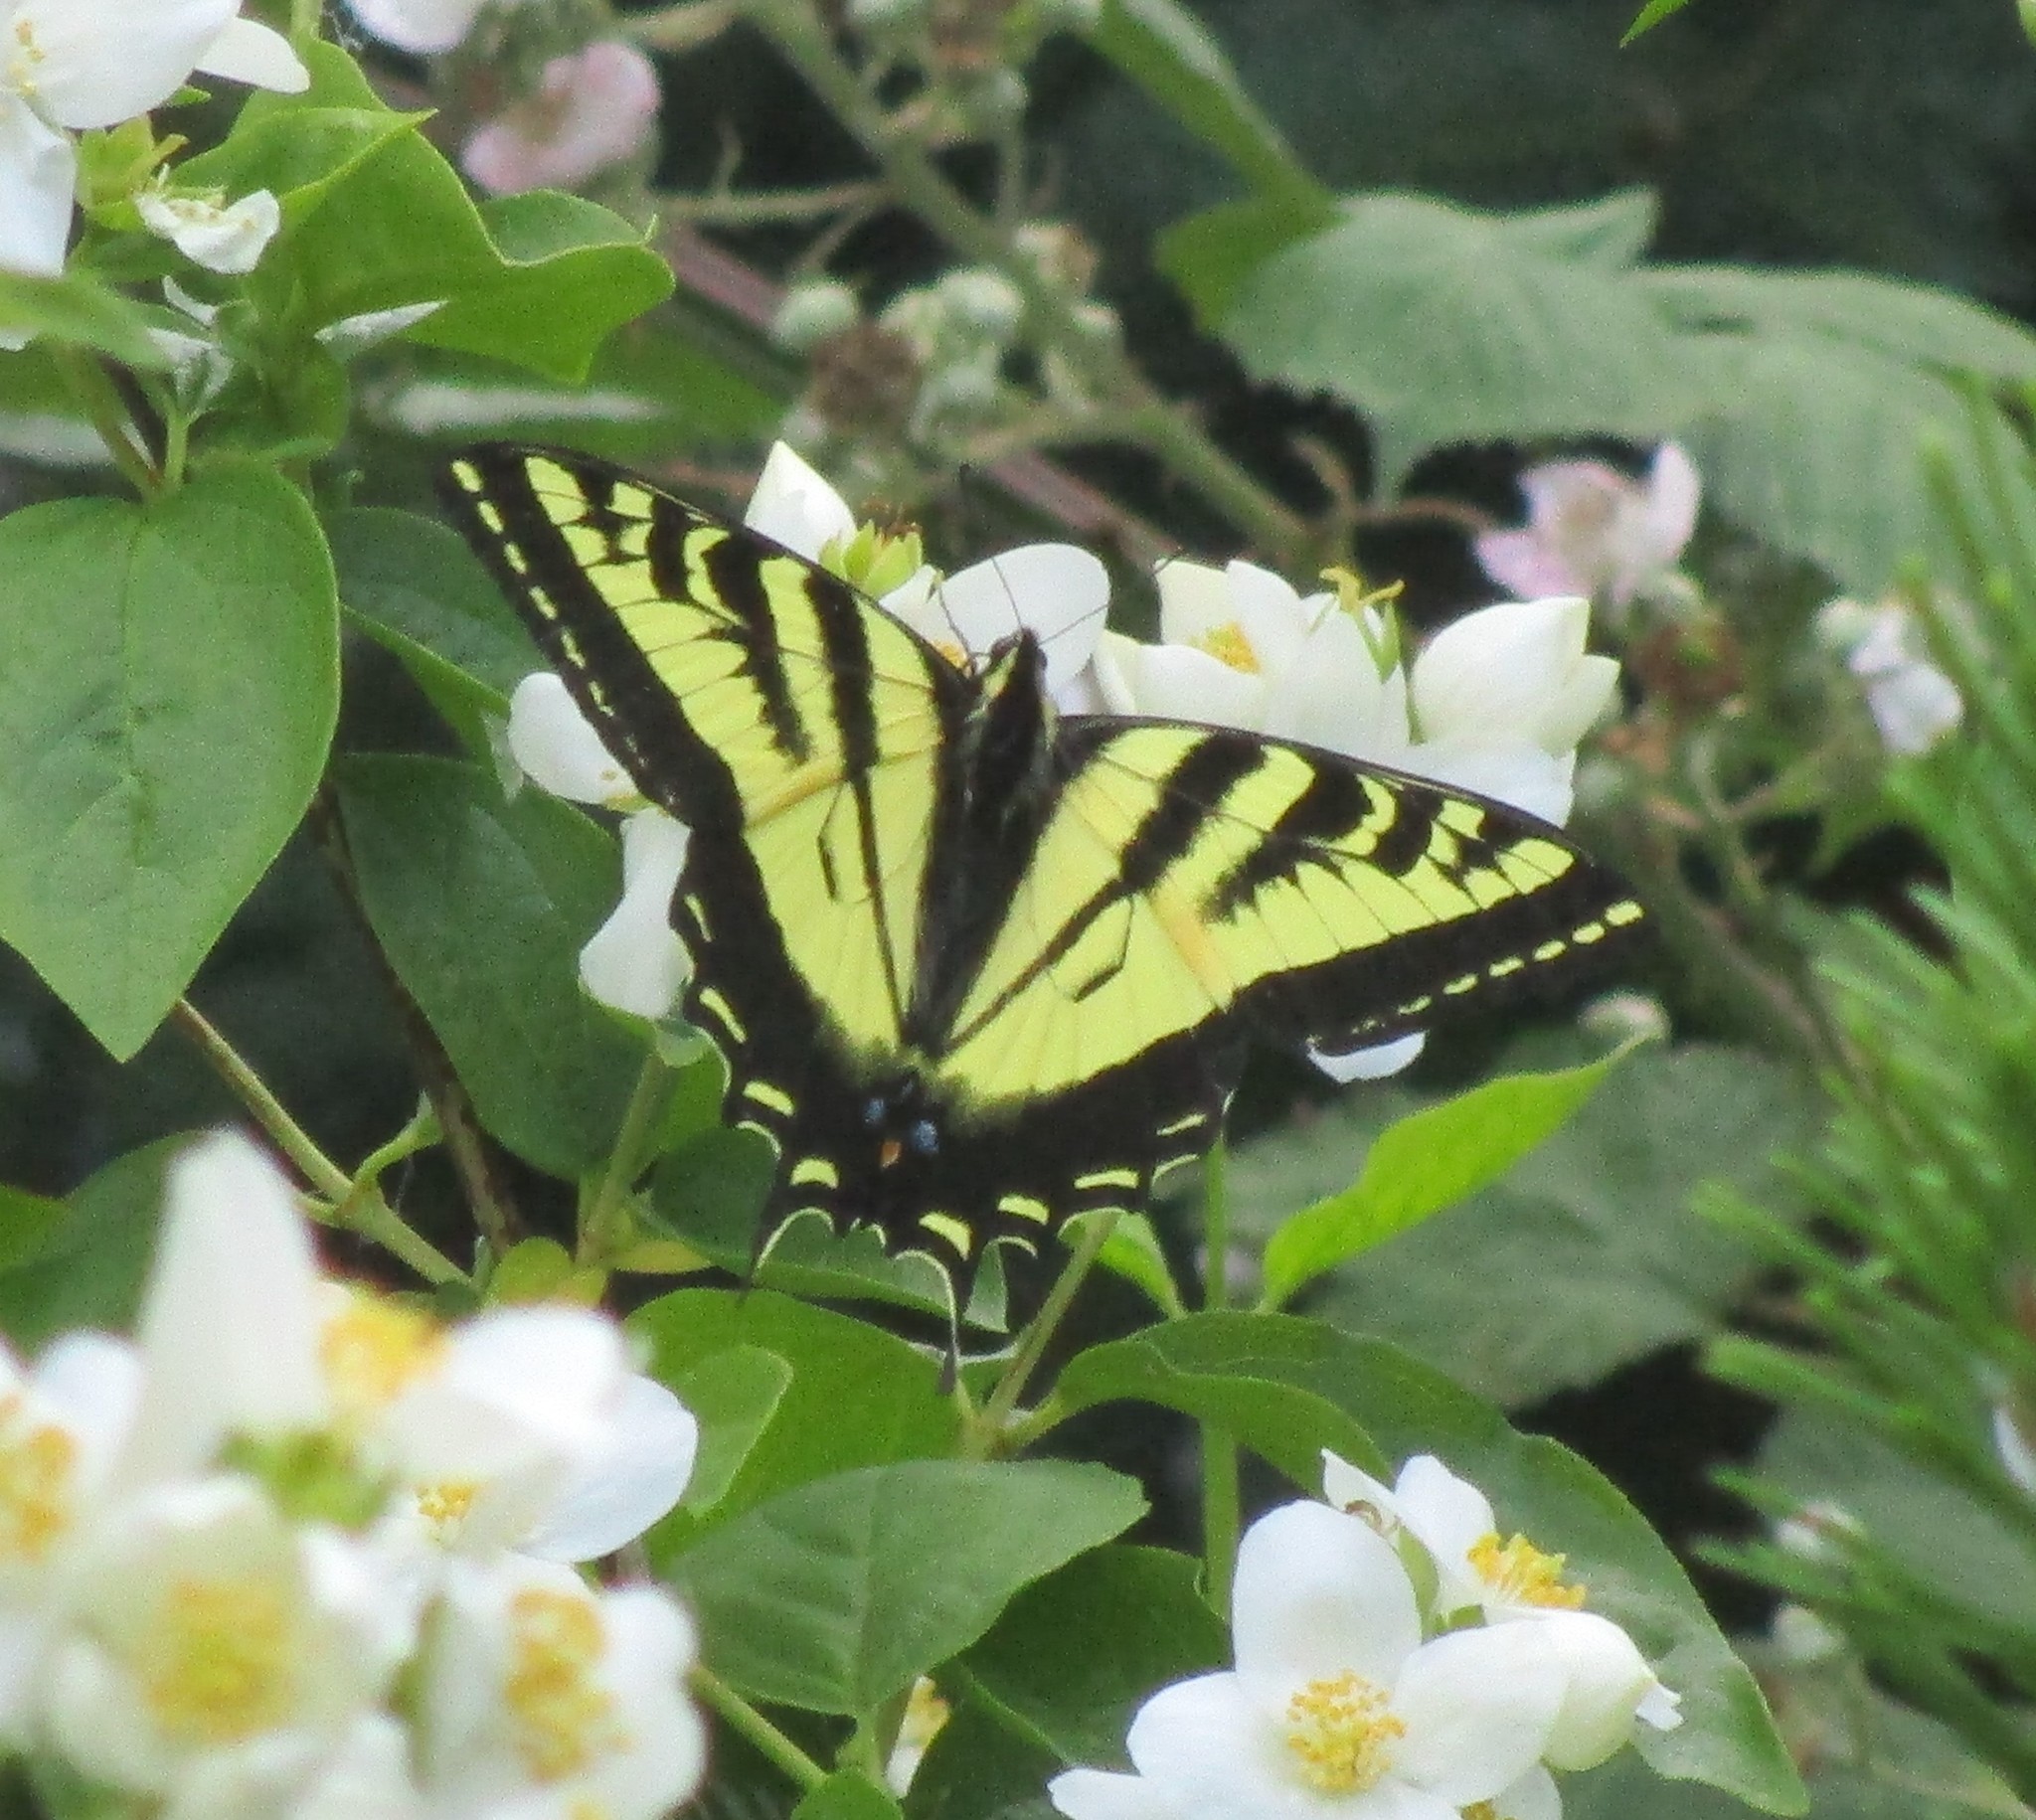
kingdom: Animalia
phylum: Arthropoda
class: Insecta
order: Lepidoptera
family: Papilionidae
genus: Papilio
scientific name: Papilio rutulus
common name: Western tiger swallowtail
